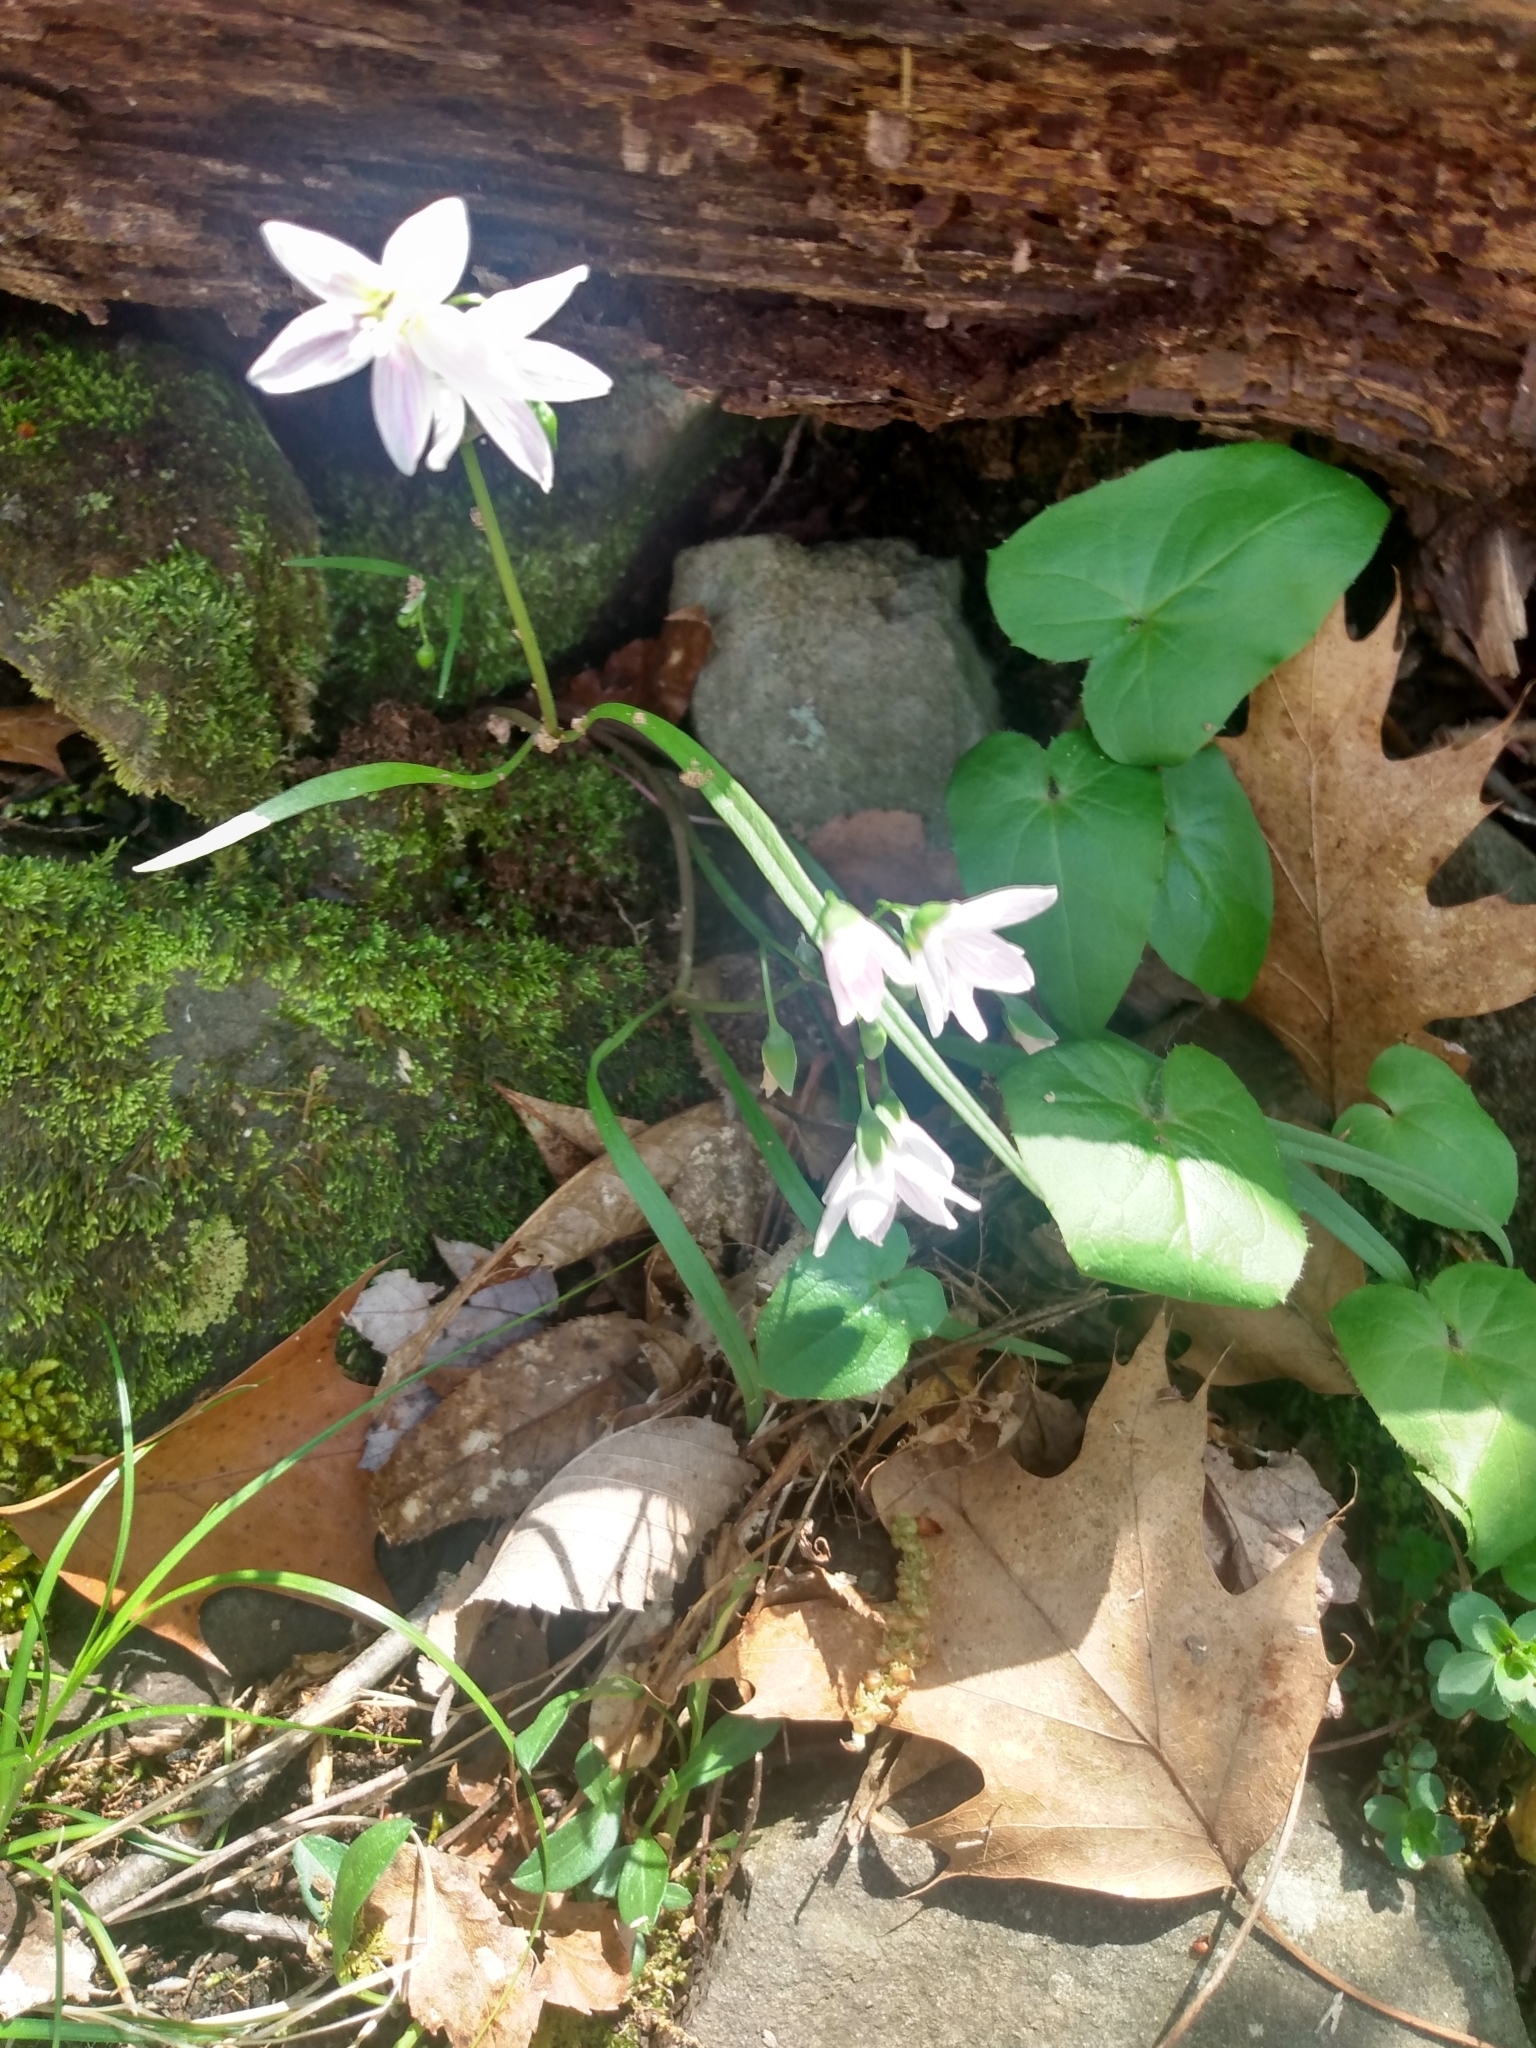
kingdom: Plantae
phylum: Tracheophyta
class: Magnoliopsida
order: Caryophyllales
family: Montiaceae
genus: Claytonia
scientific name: Claytonia virginica
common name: Virginia springbeauty
